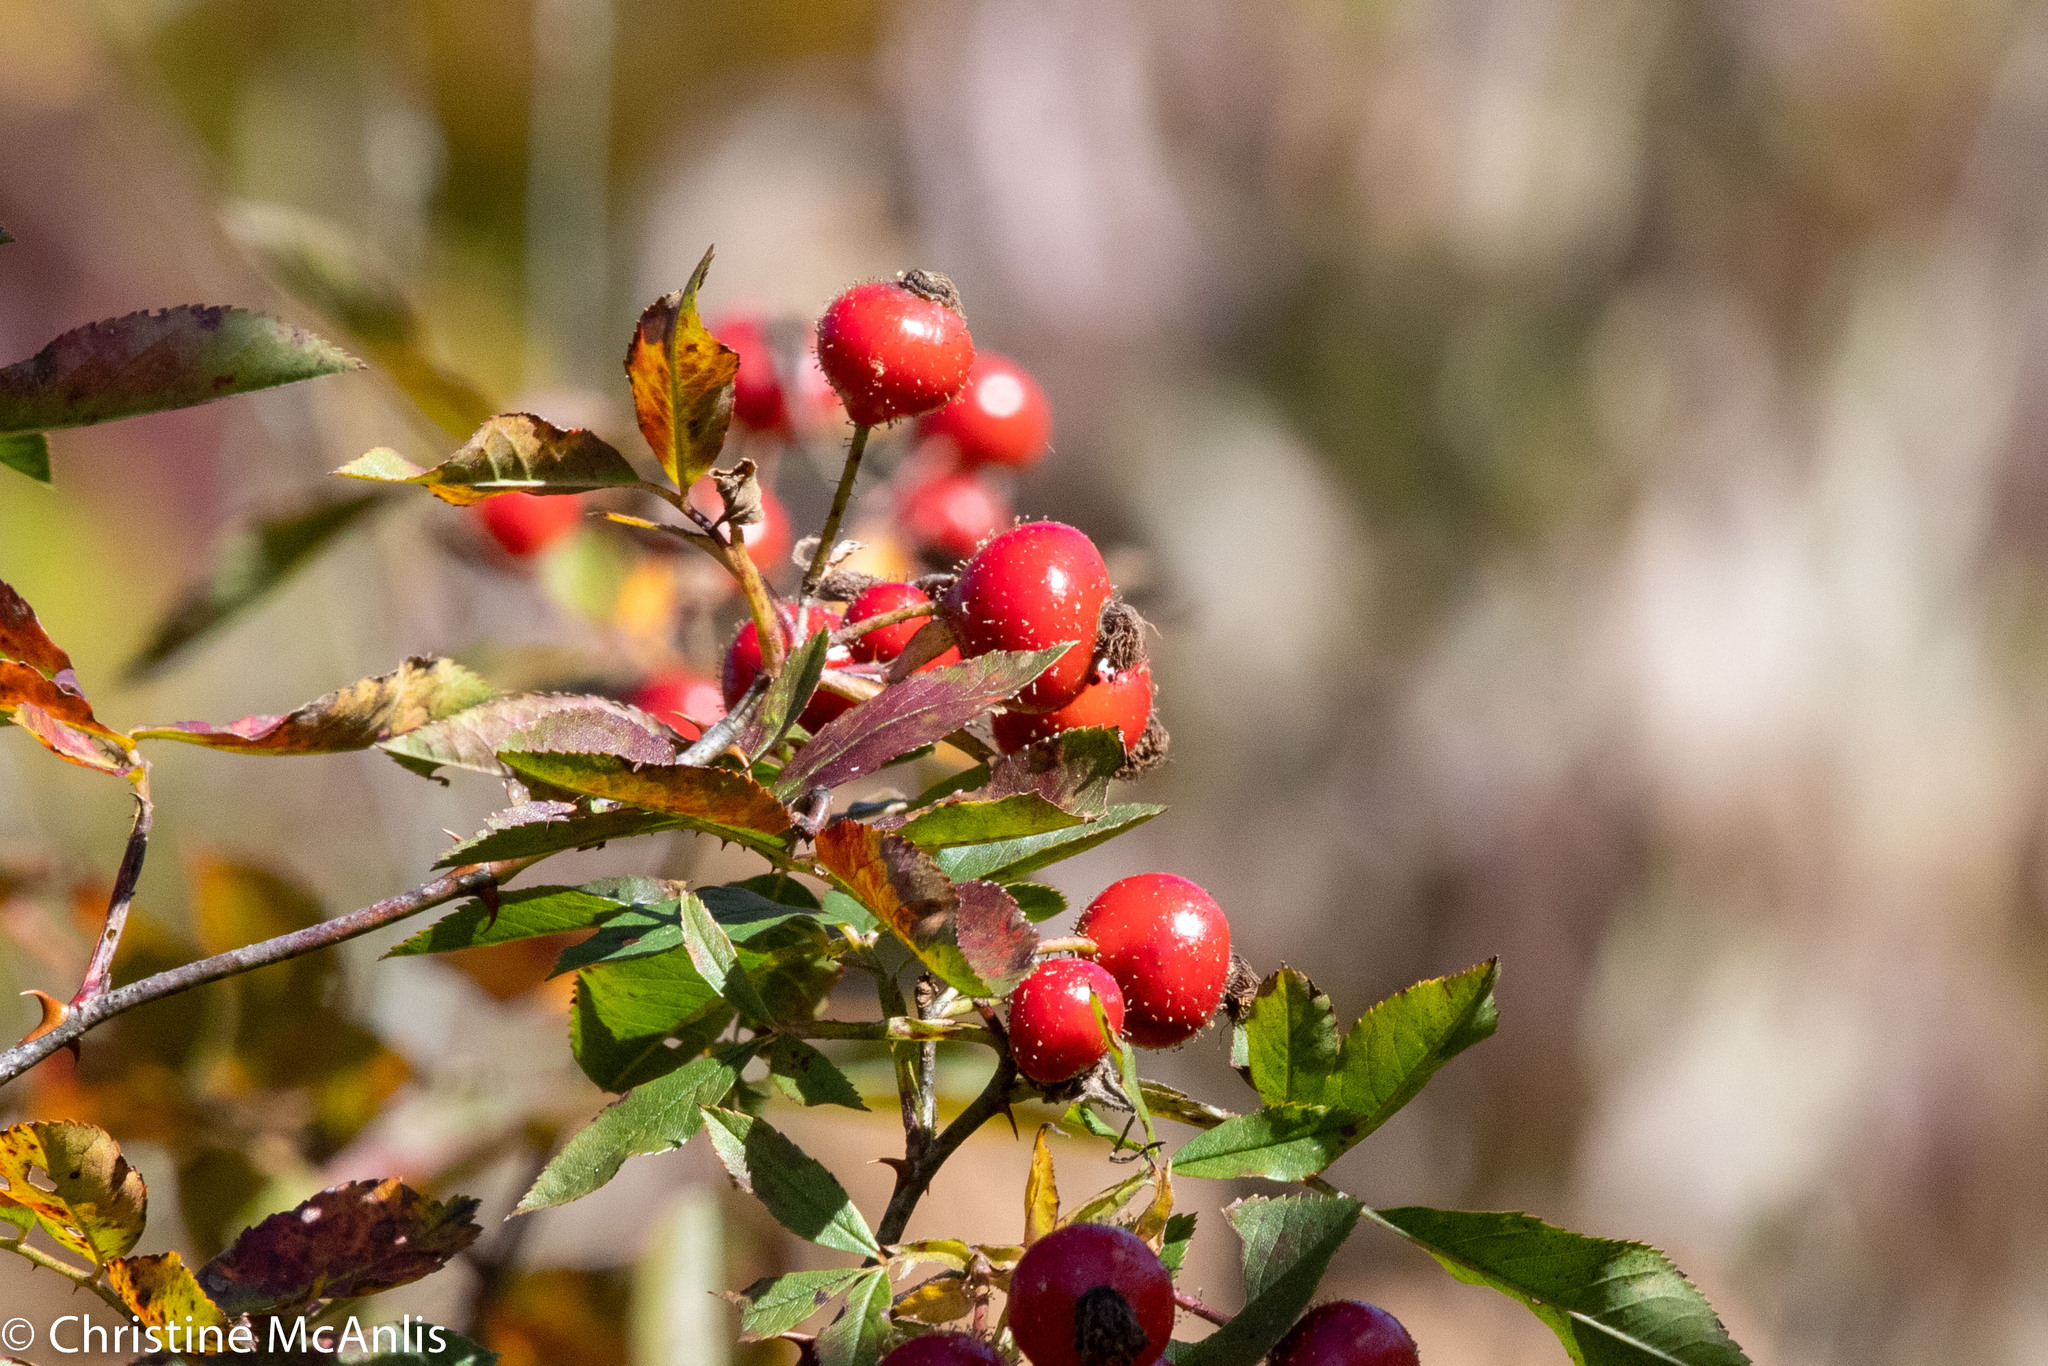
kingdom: Plantae
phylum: Tracheophyta
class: Magnoliopsida
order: Rosales
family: Rosaceae
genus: Rosa
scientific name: Rosa palustris
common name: Swamp rose
